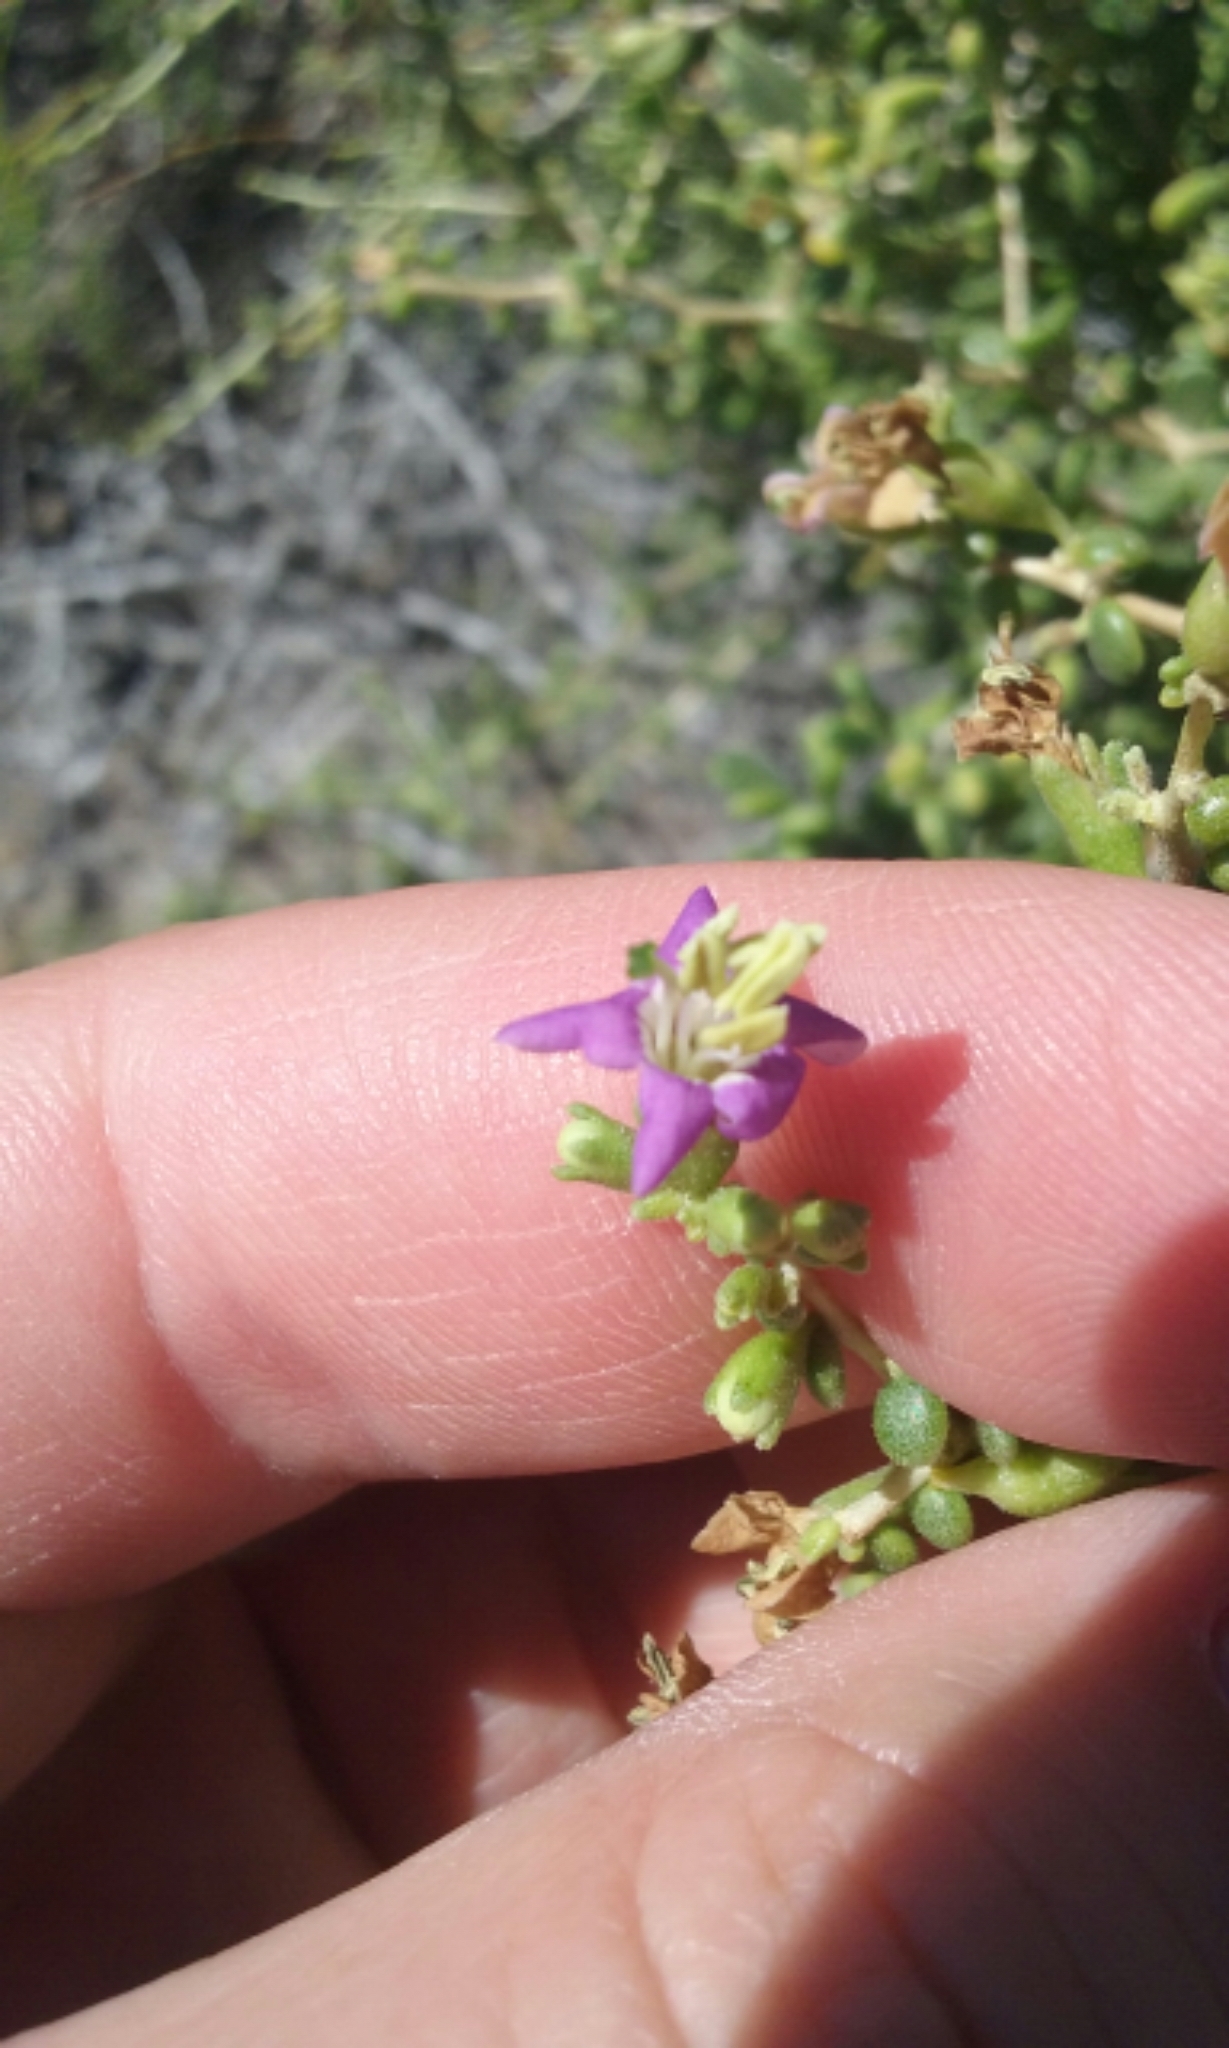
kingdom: Plantae
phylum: Tracheophyta
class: Magnoliopsida
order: Solanales
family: Solanaceae
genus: Lycium
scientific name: Lycium brevipes
